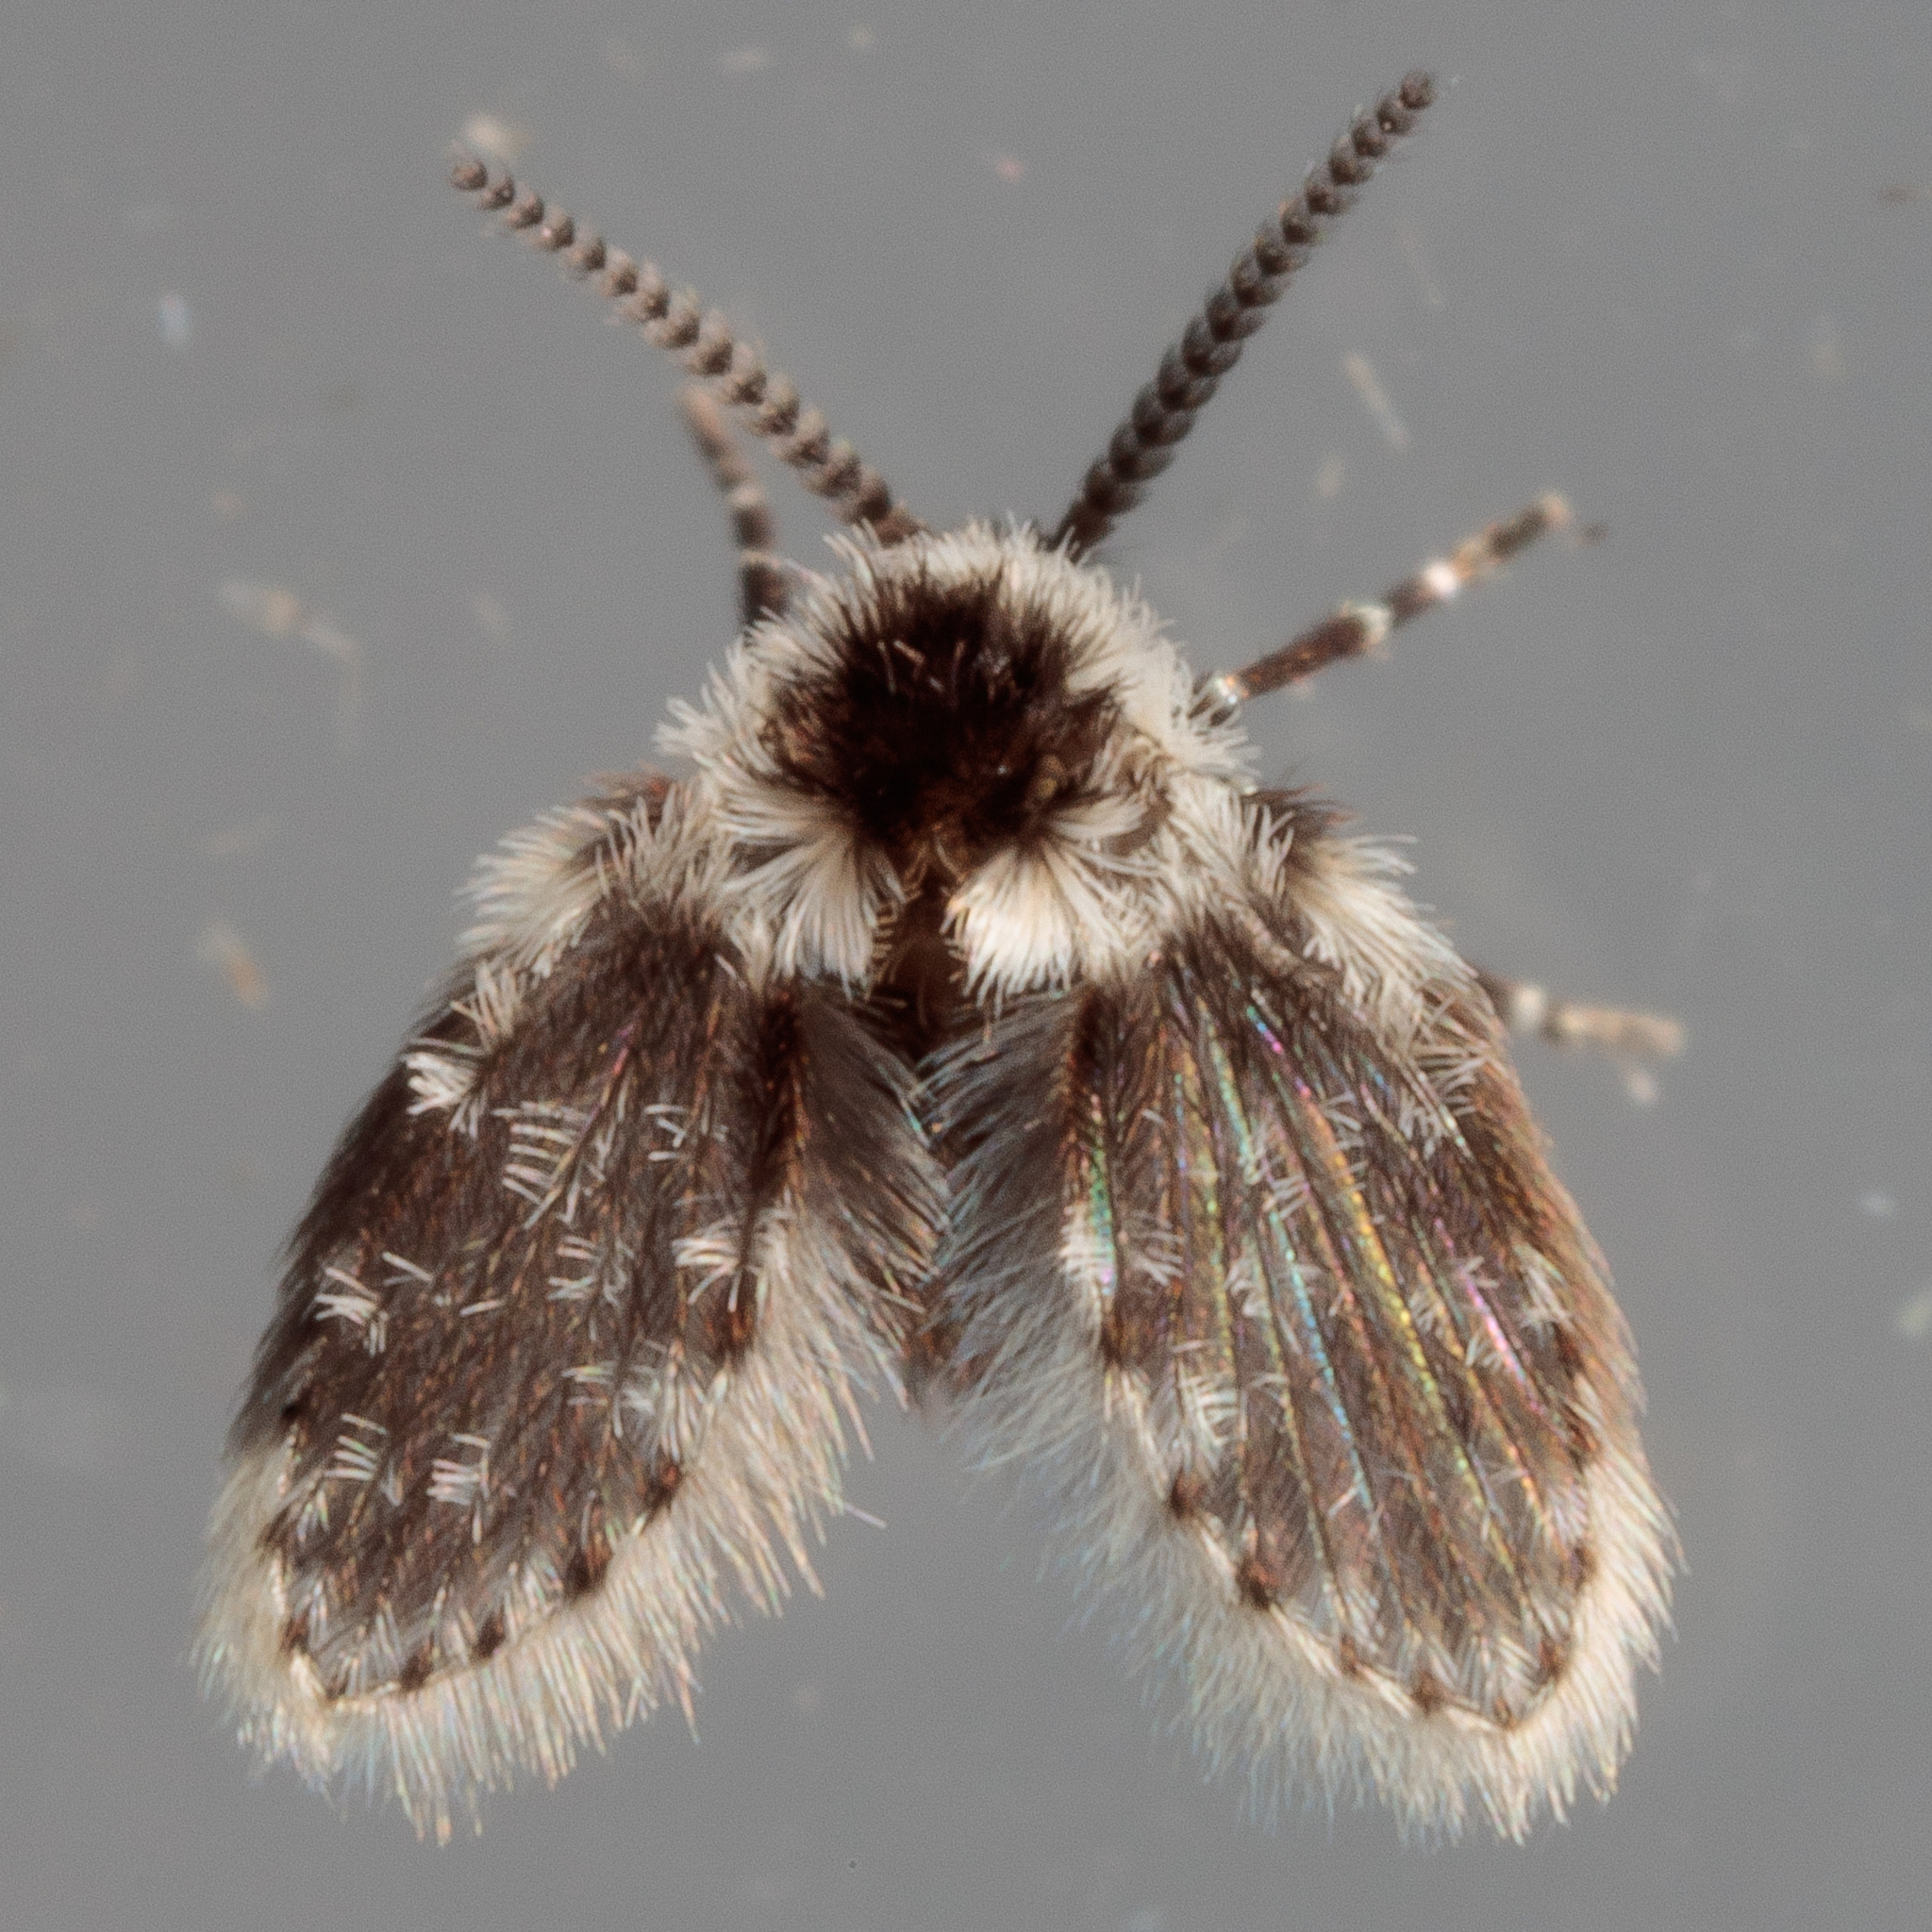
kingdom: Animalia
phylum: Arthropoda
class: Insecta
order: Diptera
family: Psychodidae
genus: Lepiseodina
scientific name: Lepiseodina
